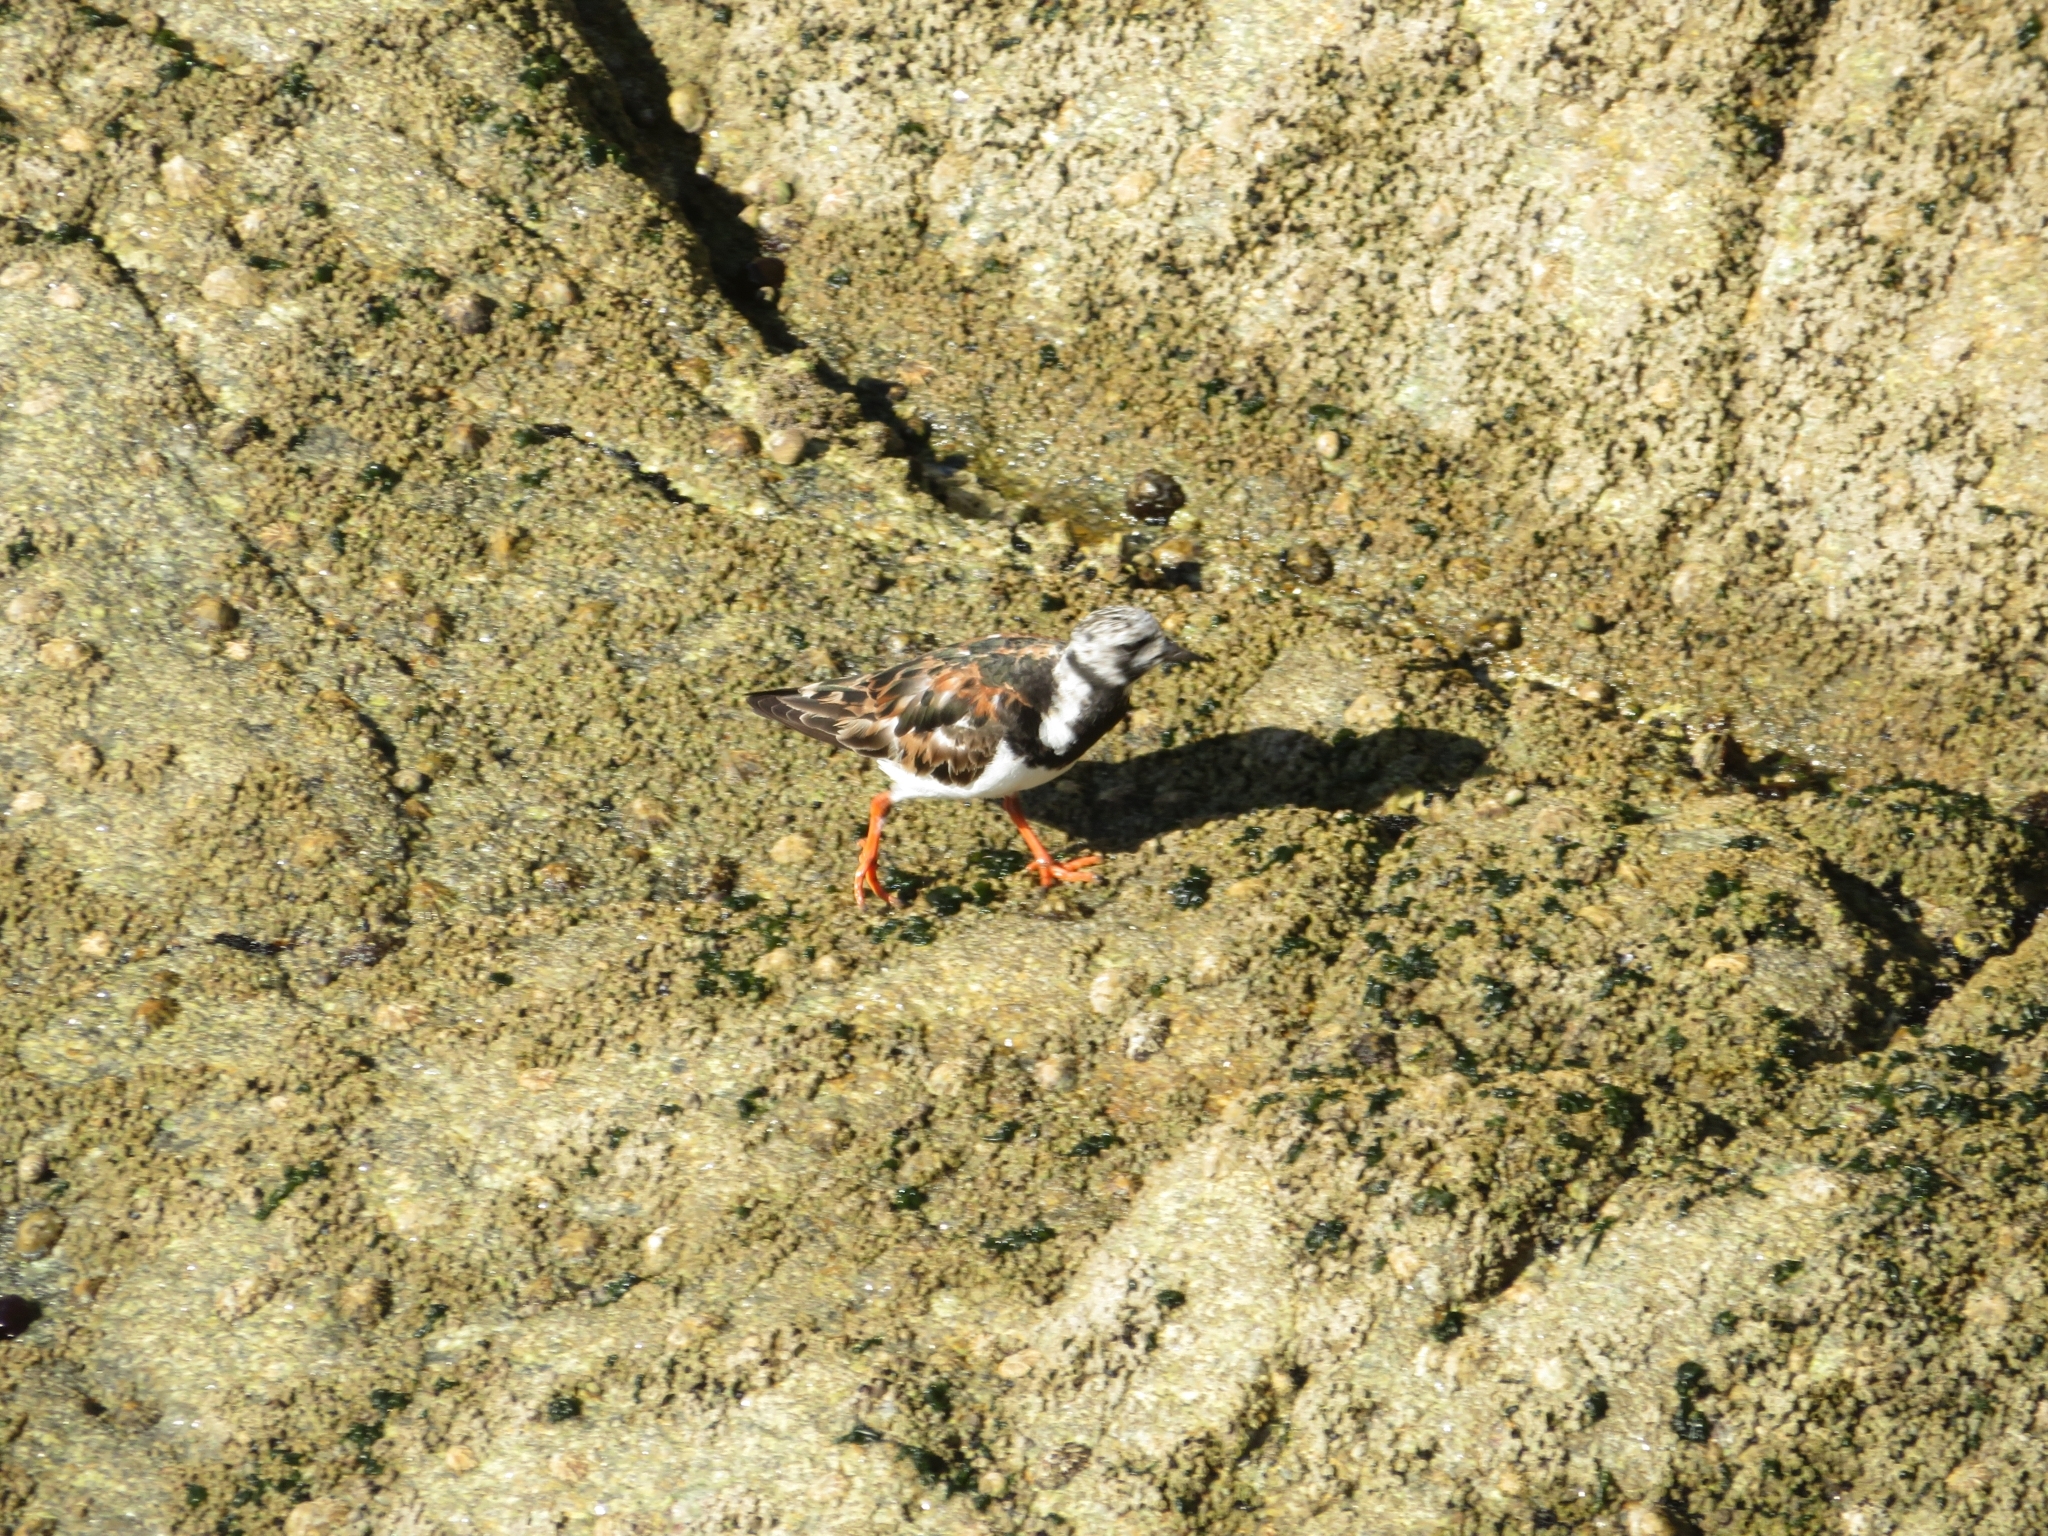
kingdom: Animalia
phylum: Chordata
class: Aves
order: Charadriiformes
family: Scolopacidae
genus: Arenaria
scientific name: Arenaria interpres
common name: Ruddy turnstone
